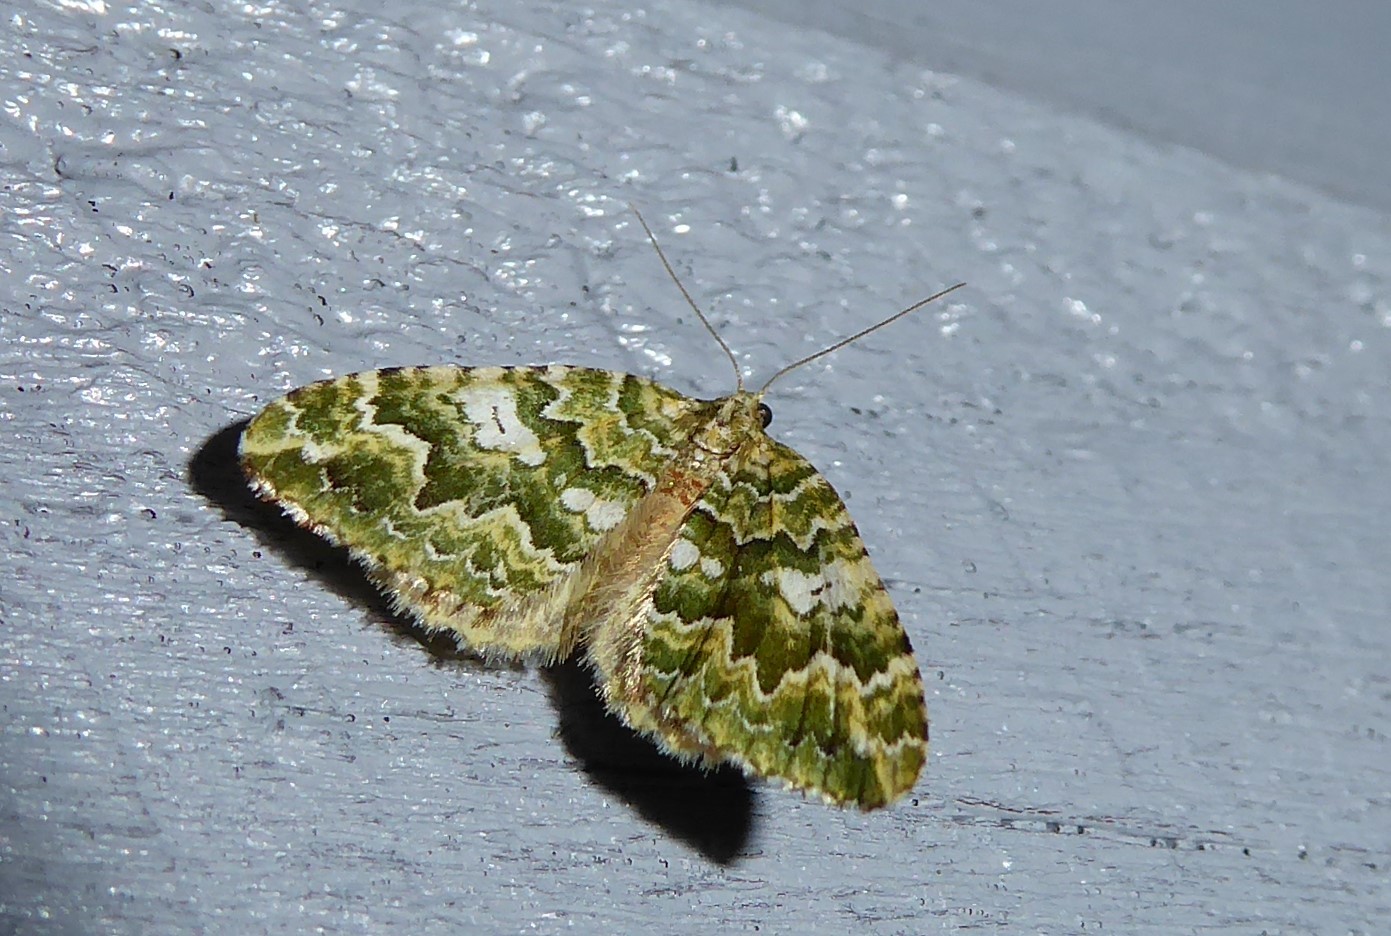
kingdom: Animalia
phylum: Arthropoda
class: Insecta
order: Lepidoptera
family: Geometridae
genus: Asaphodes
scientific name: Asaphodes beata
